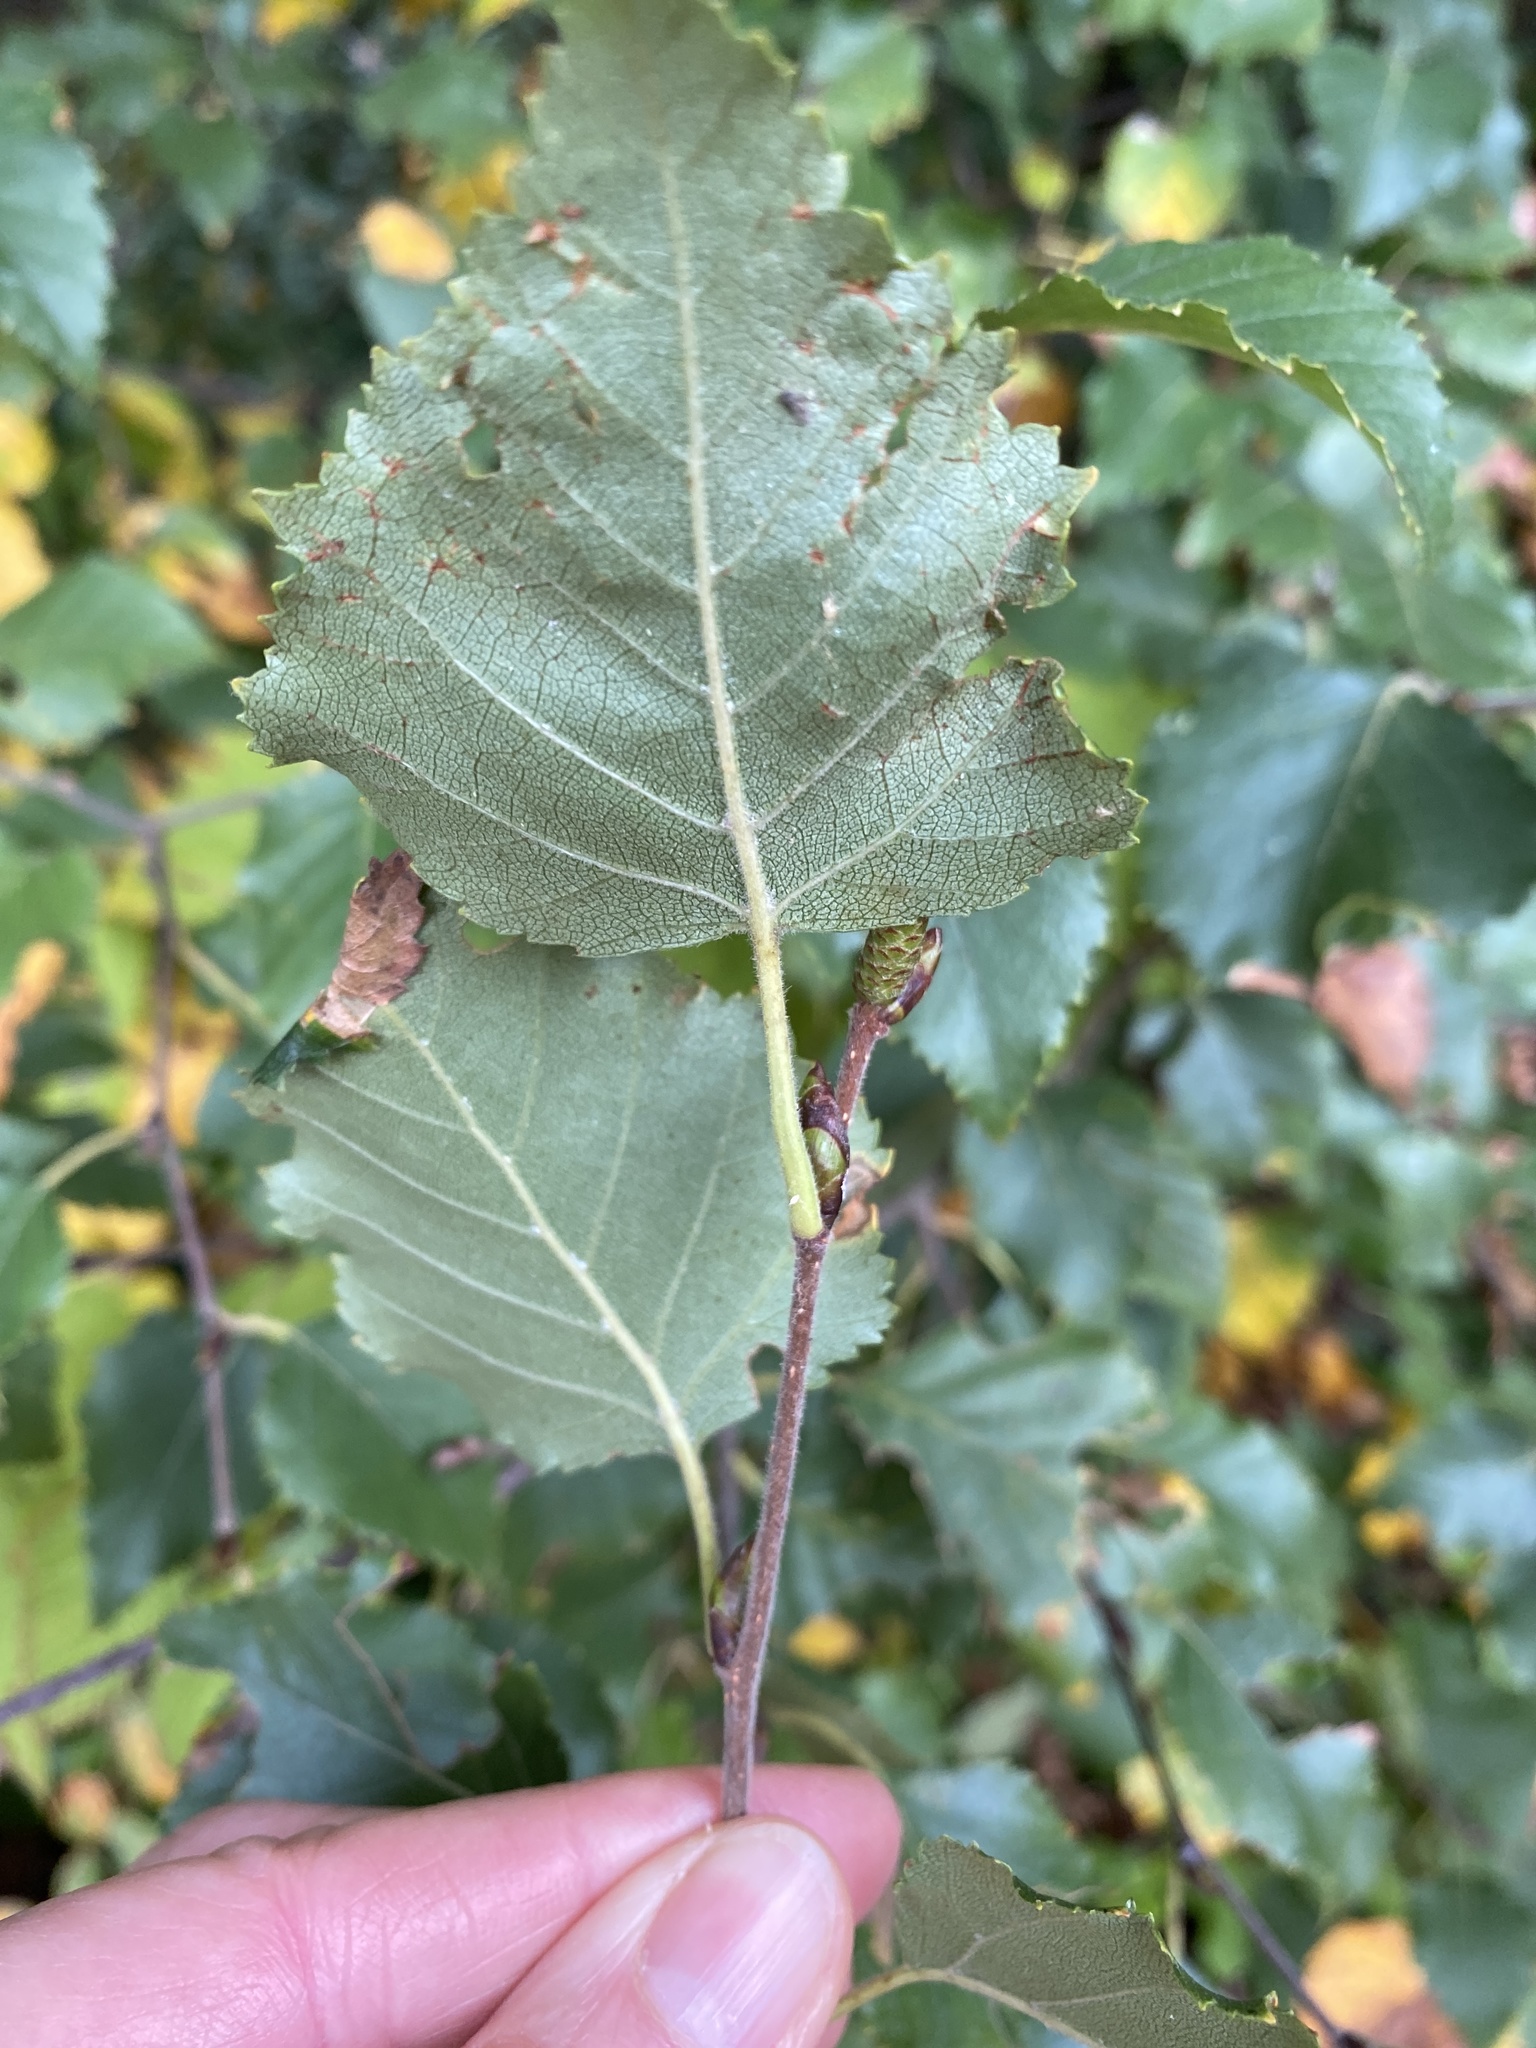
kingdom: Plantae
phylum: Tracheophyta
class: Magnoliopsida
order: Fagales
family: Betulaceae
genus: Betula
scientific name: Betula pubescens
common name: Downy birch
